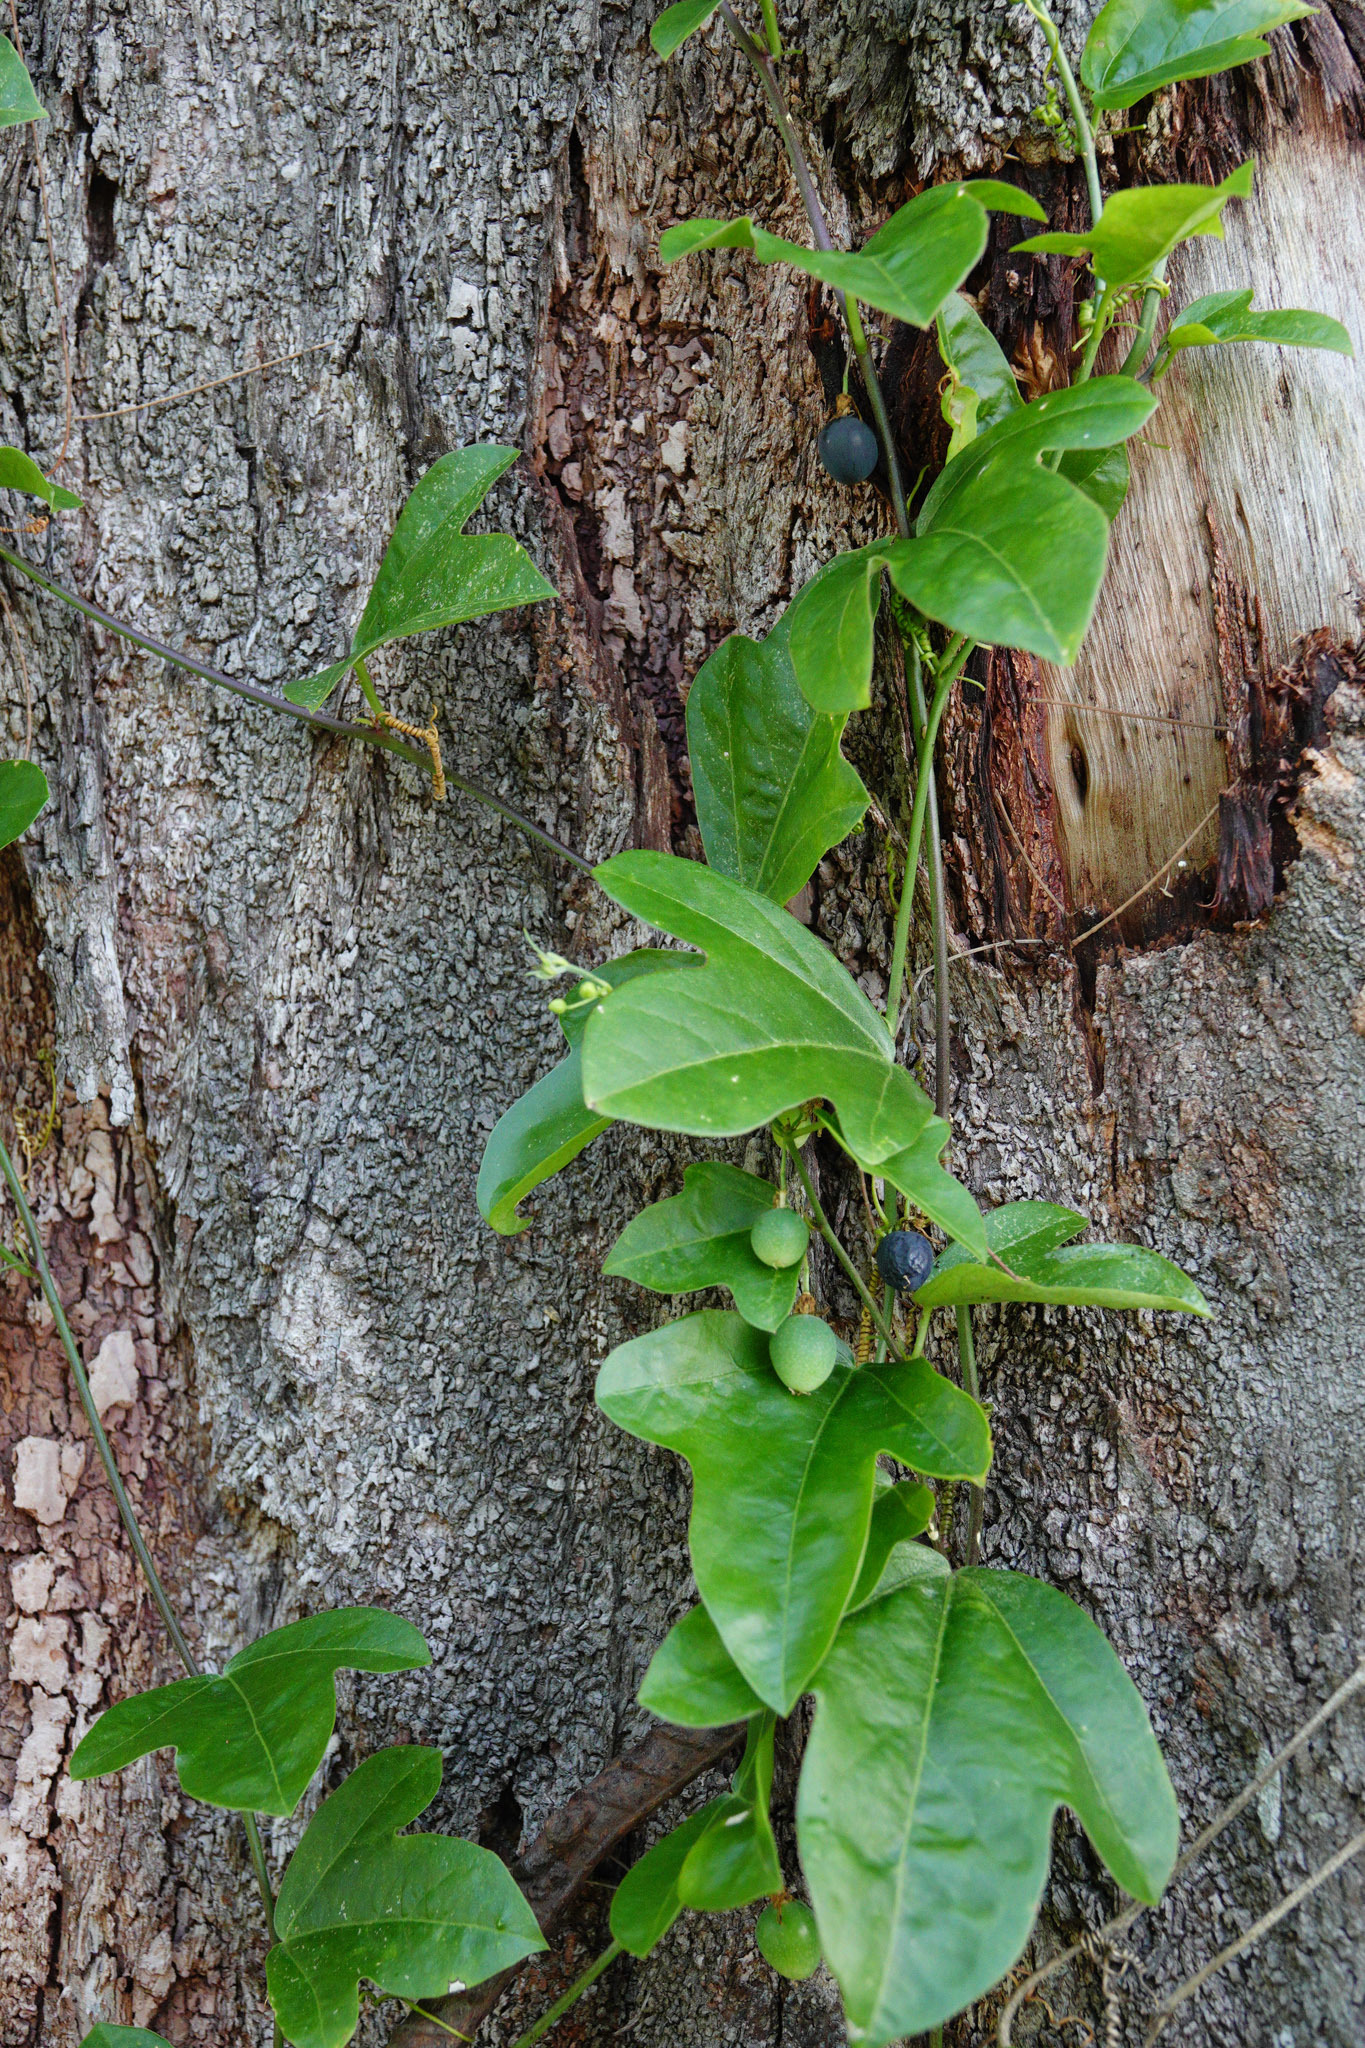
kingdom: Plantae
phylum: Tracheophyta
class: Magnoliopsida
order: Malpighiales
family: Passifloraceae
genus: Passiflora
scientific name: Passiflora suberosa
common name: Wild passionfruit
